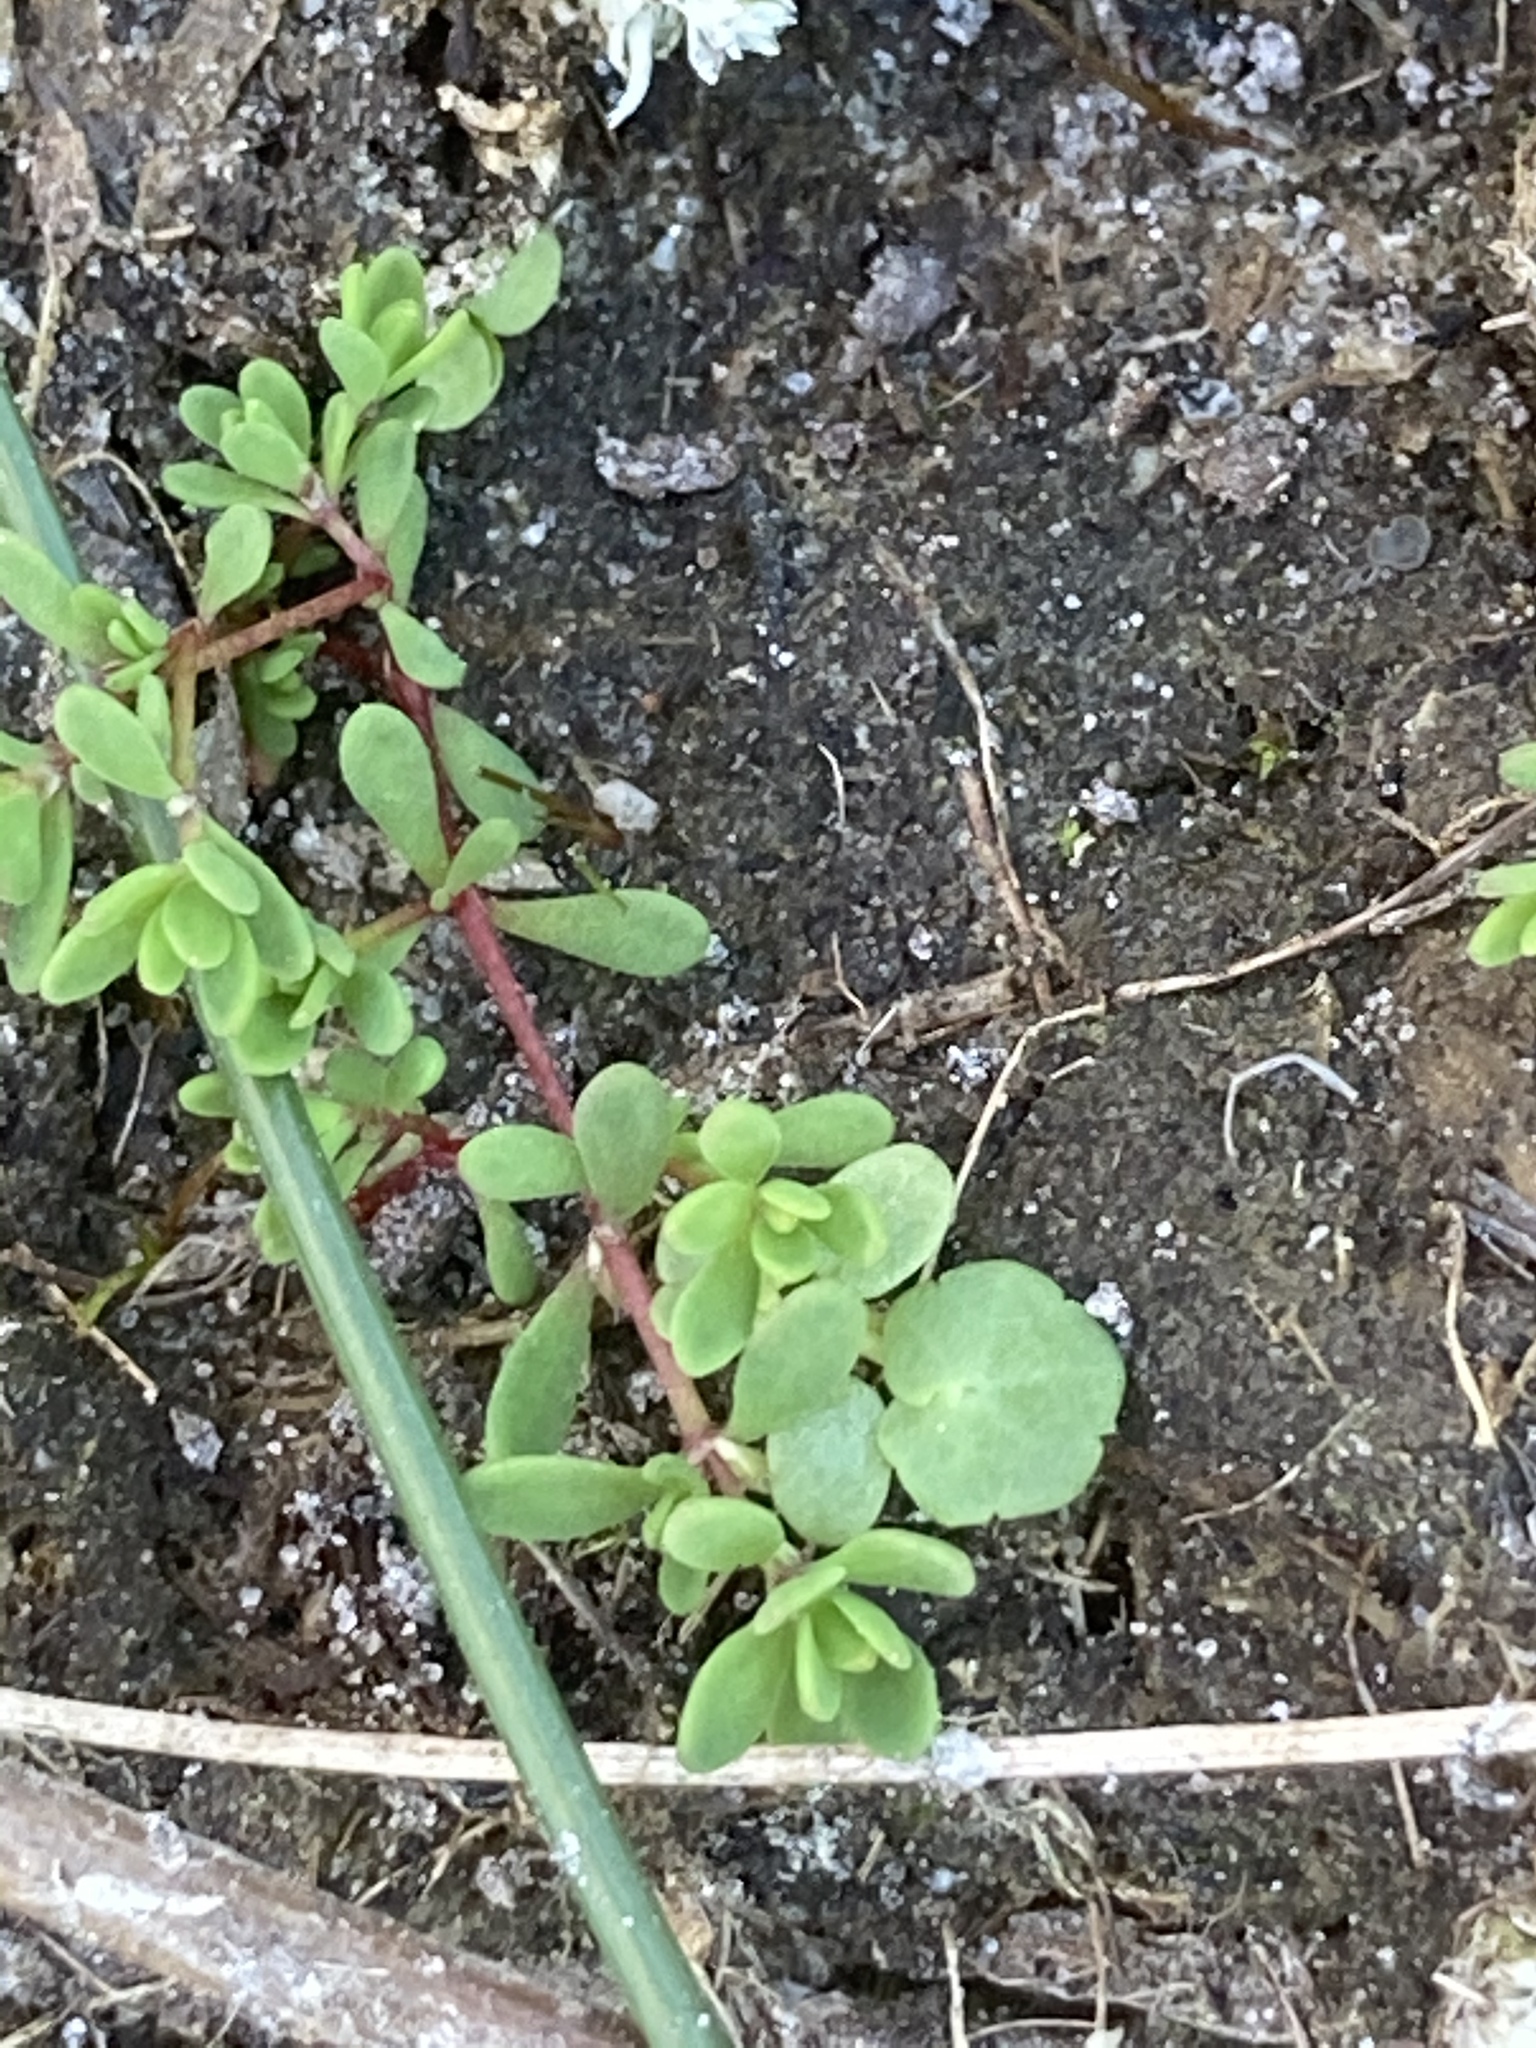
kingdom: Plantae
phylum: Tracheophyta
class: Magnoliopsida
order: Caryophyllales
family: Portulacaceae
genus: Portulaca
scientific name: Portulaca oleracea
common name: Common purslane
